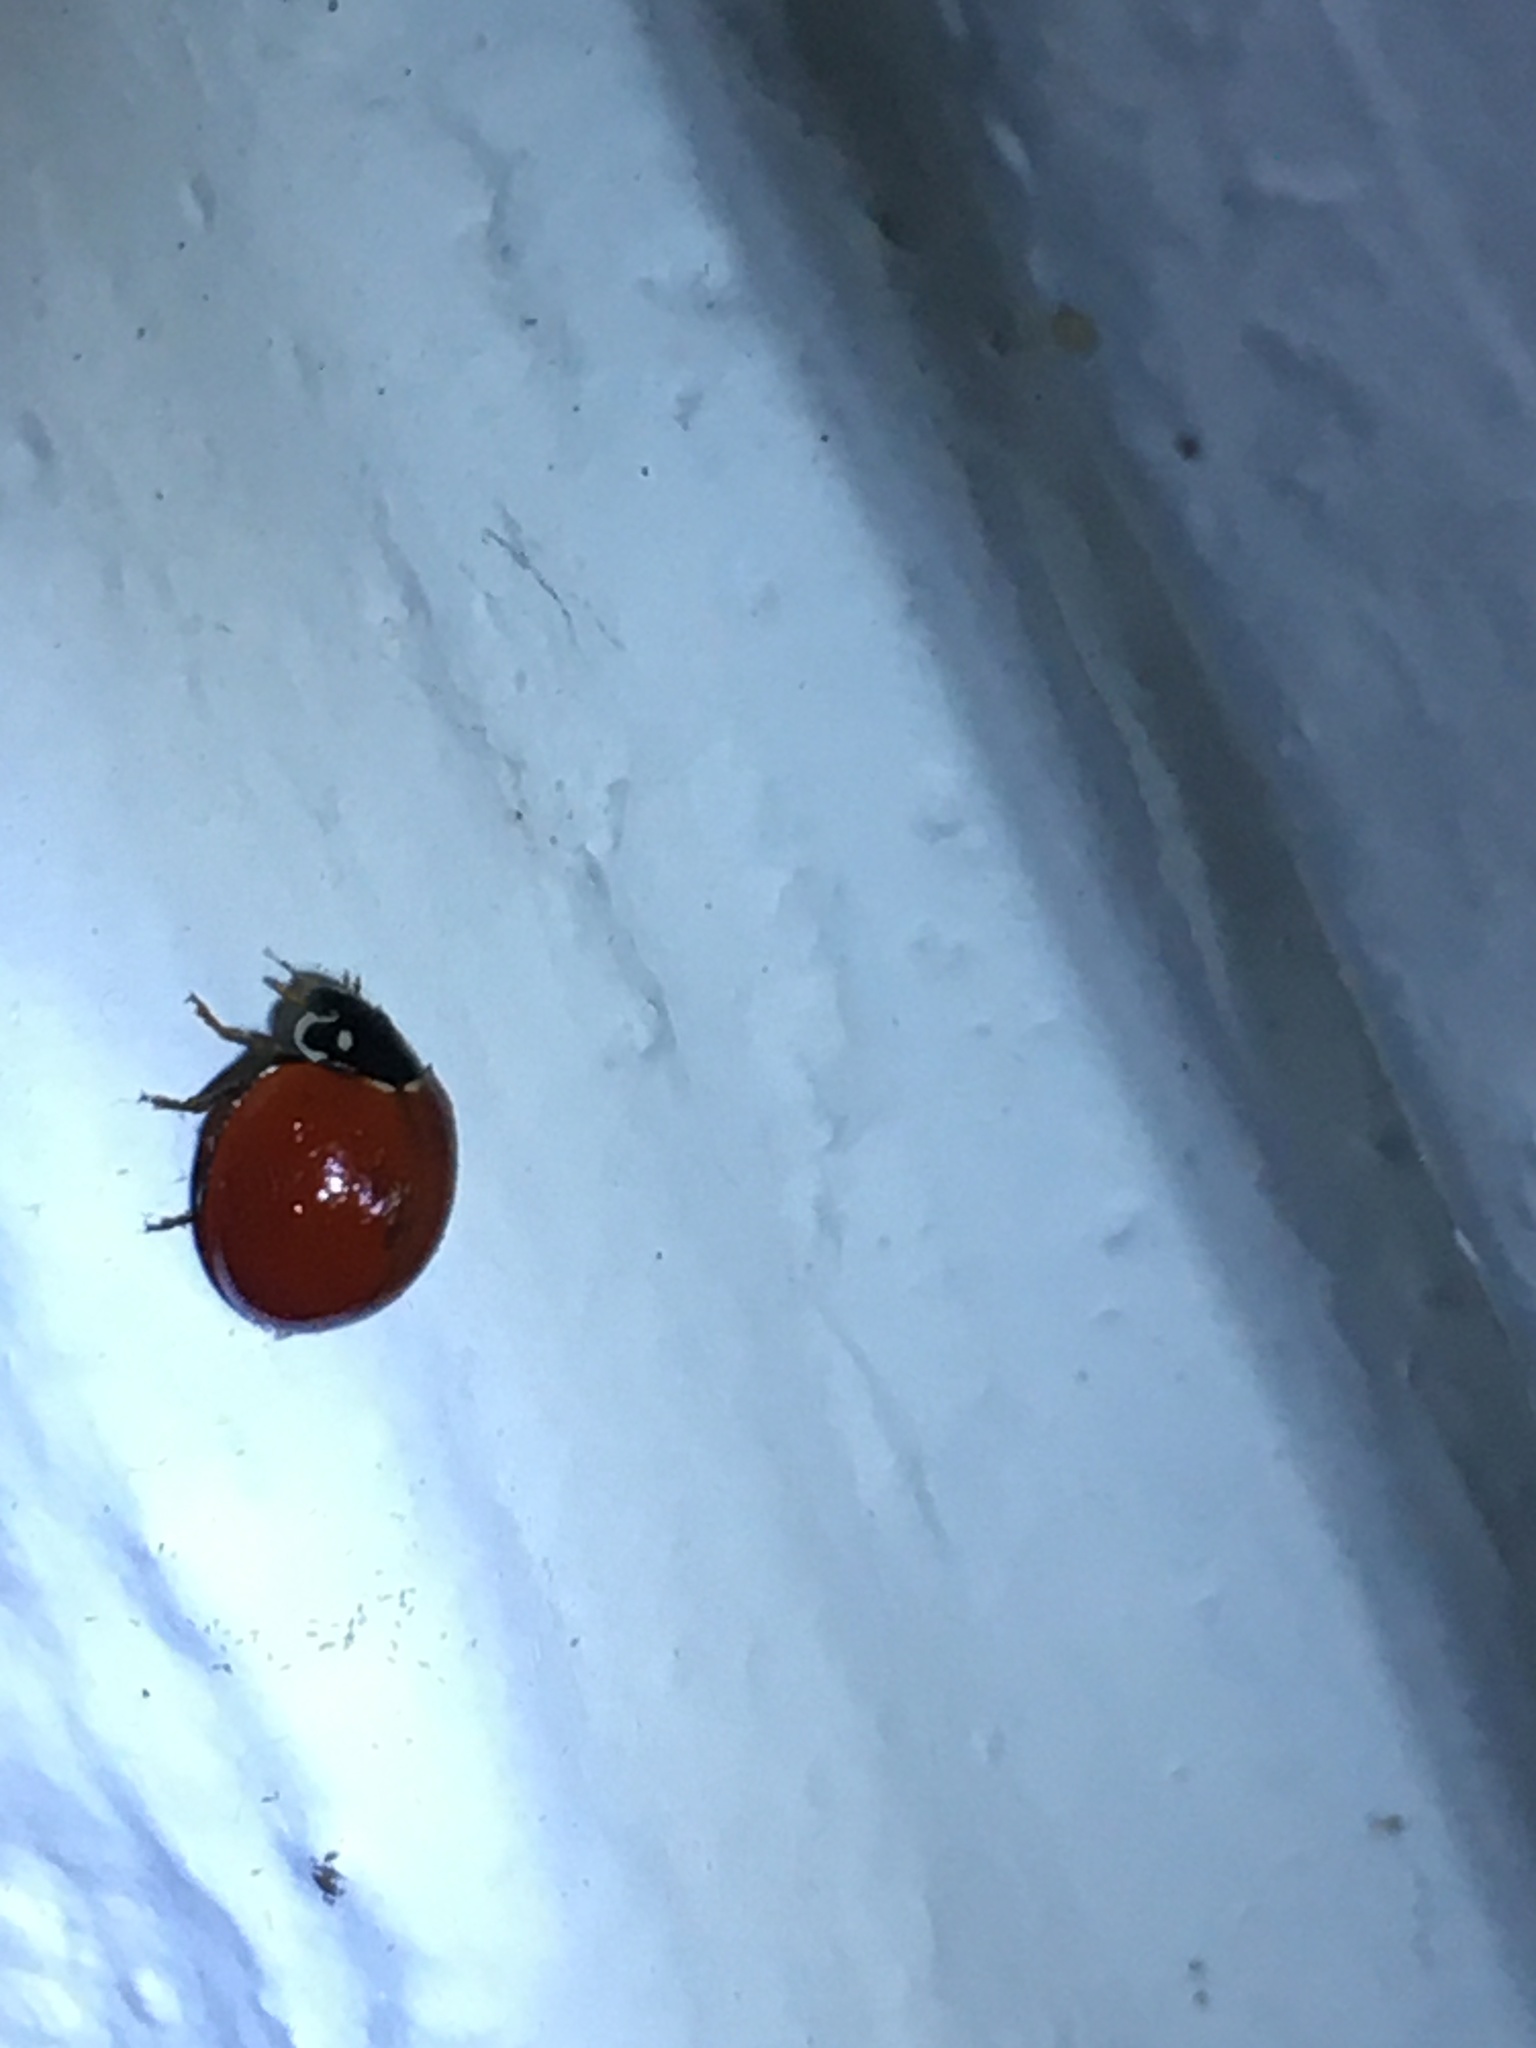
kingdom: Animalia
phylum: Arthropoda
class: Insecta
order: Coleoptera
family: Coccinellidae
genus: Cycloneda
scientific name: Cycloneda sanguinea
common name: Ladybird beetle
